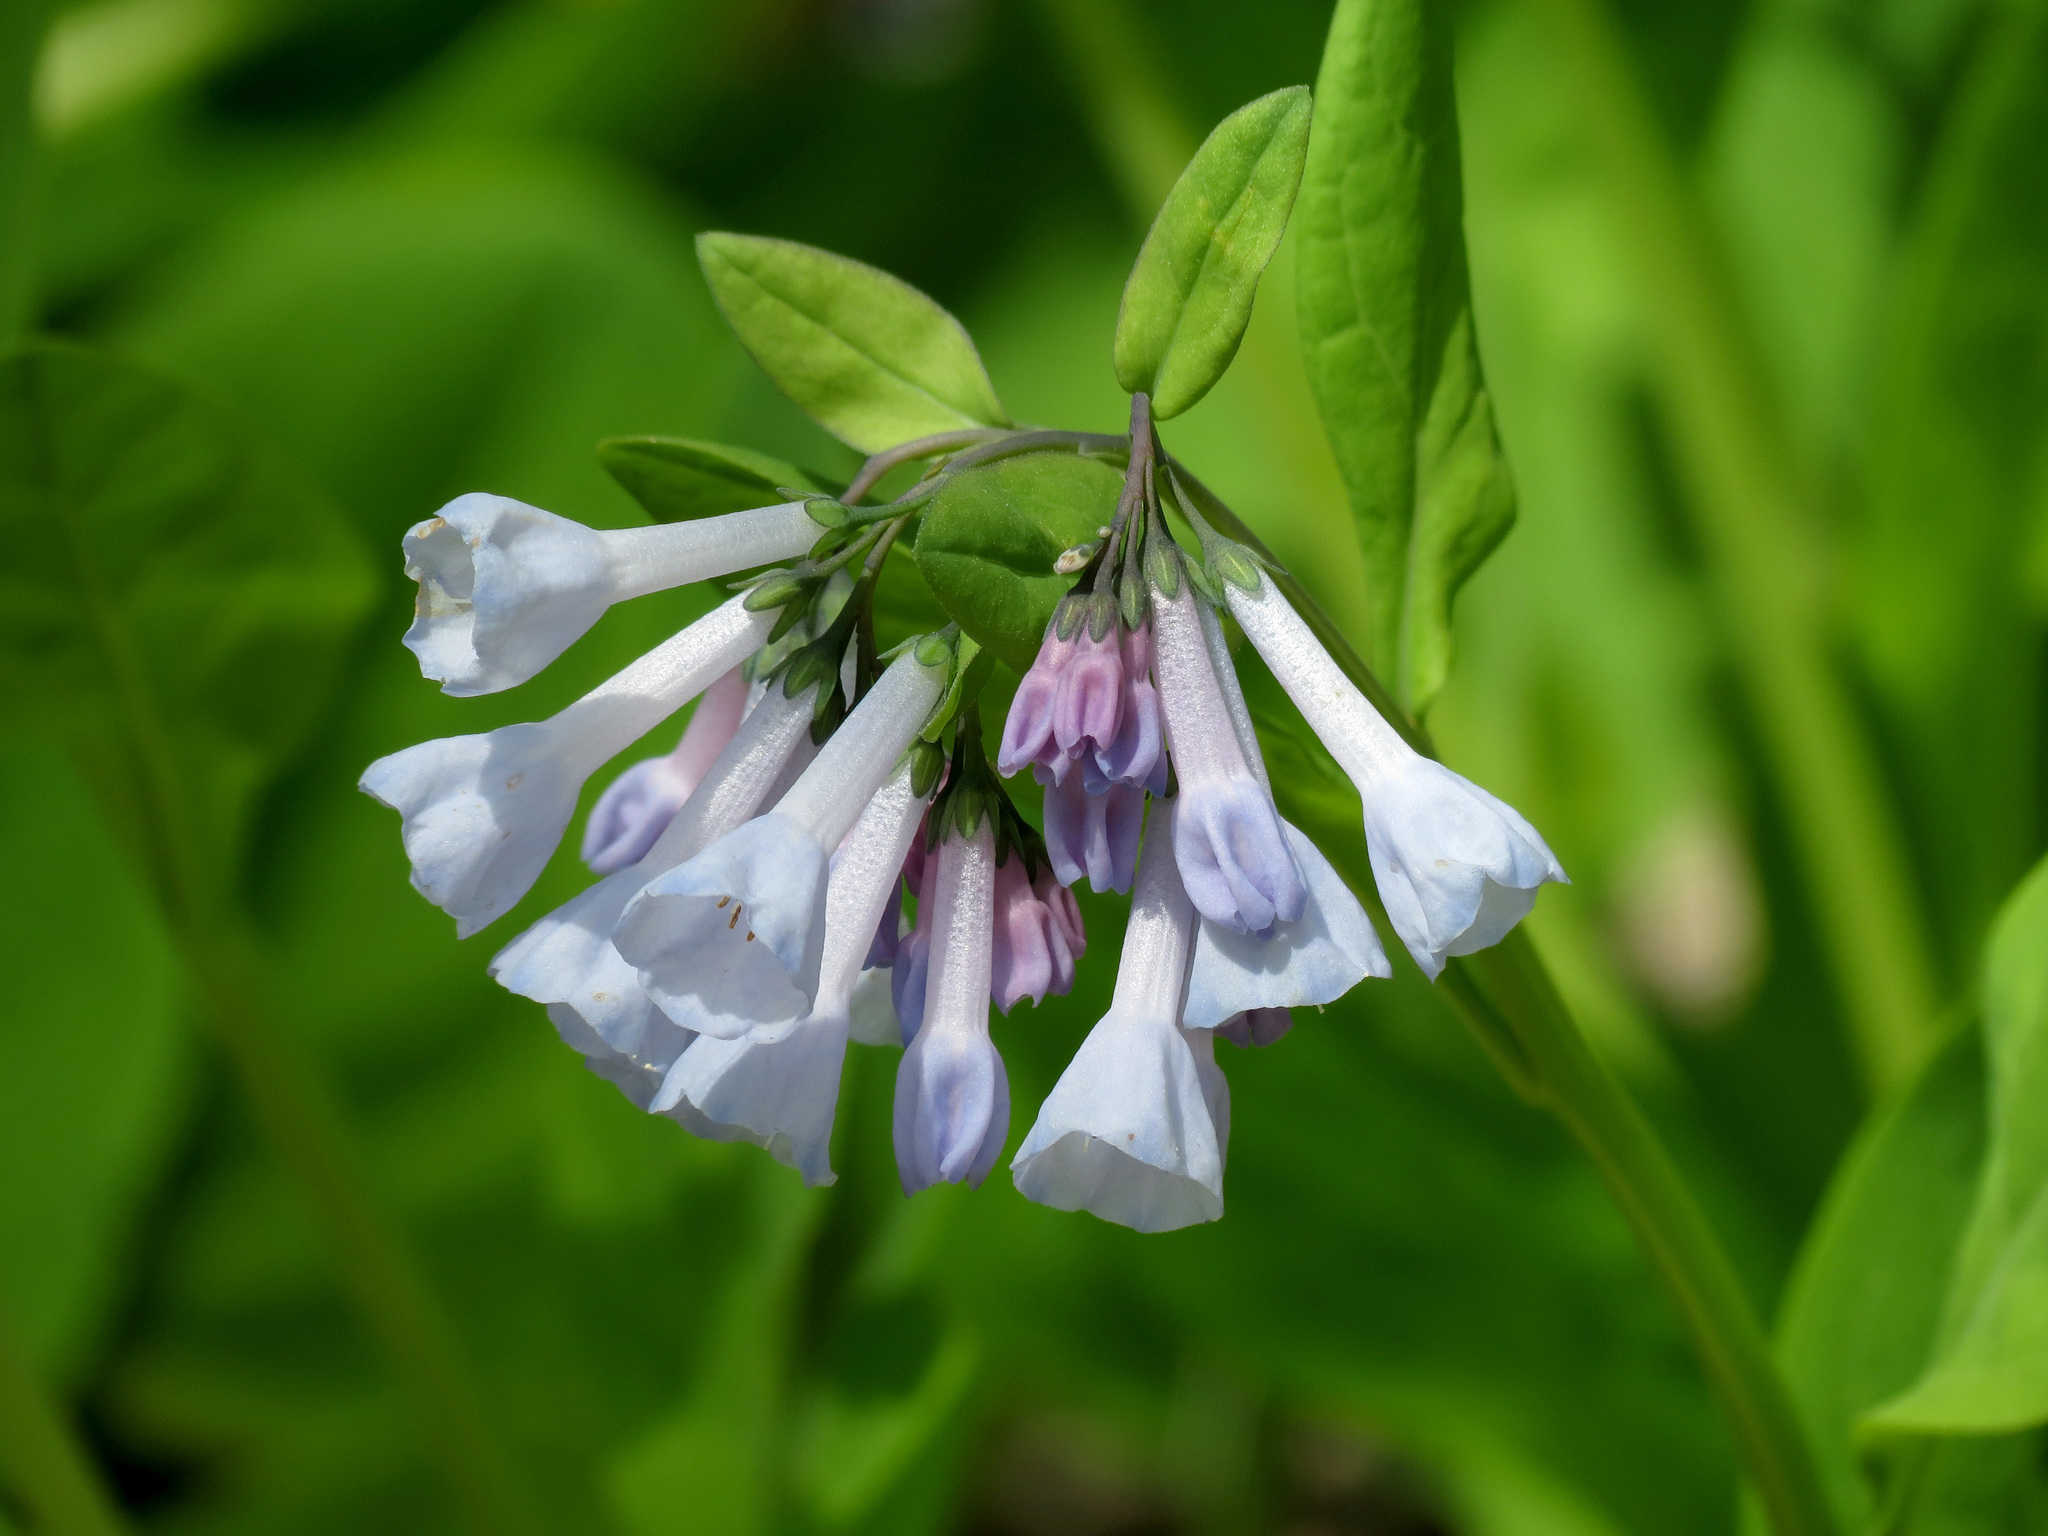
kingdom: Plantae
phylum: Tracheophyta
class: Magnoliopsida
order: Boraginales
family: Boraginaceae
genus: Mertensia
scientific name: Mertensia virginica
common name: Virginia bluebells
